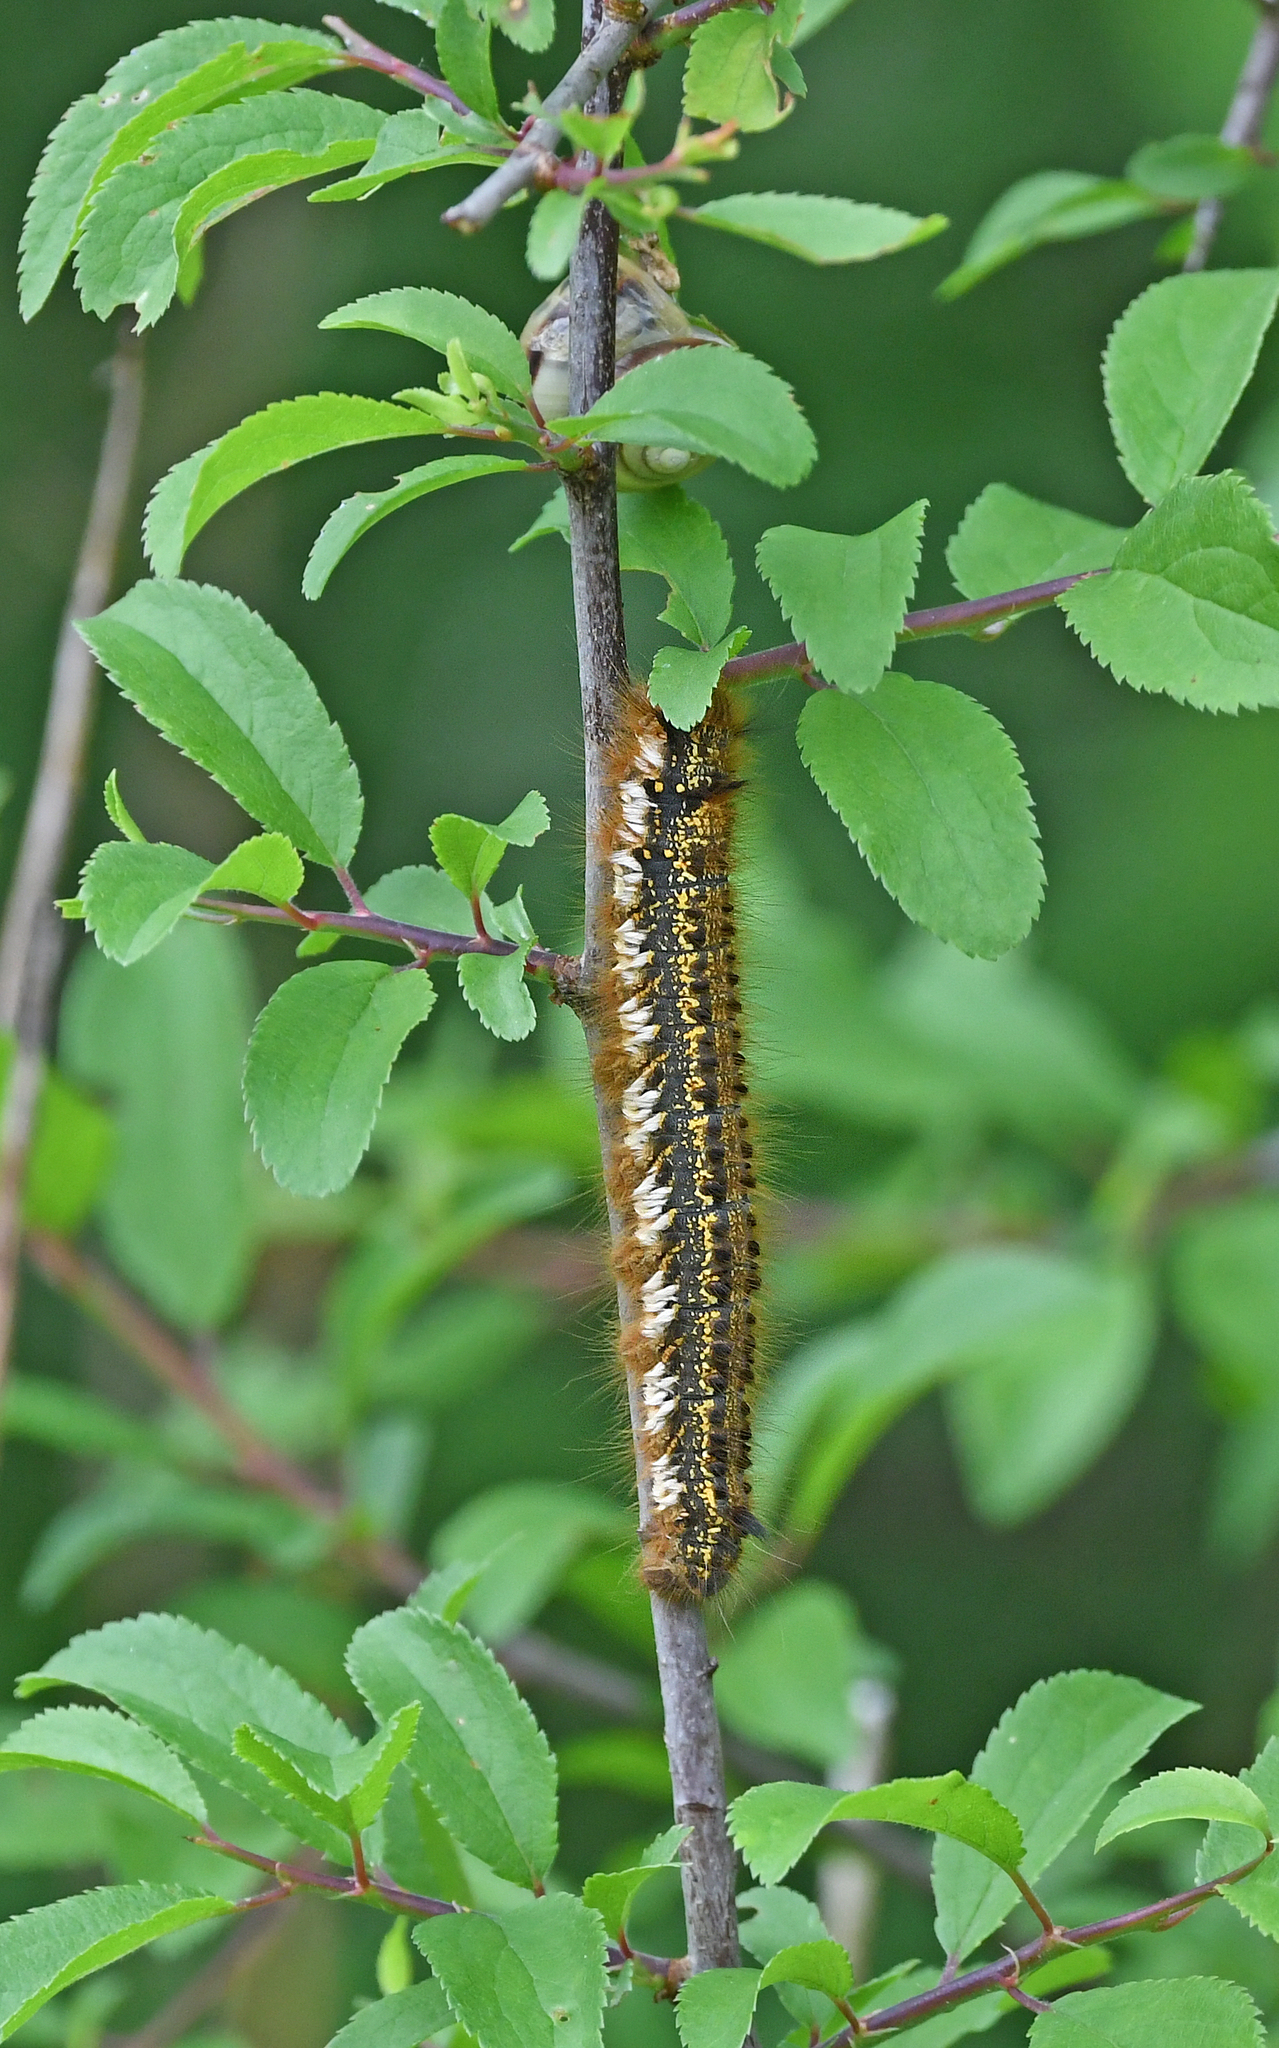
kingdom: Animalia
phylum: Arthropoda
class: Insecta
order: Lepidoptera
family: Lasiocampidae
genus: Euthrix
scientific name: Euthrix potatoria
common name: Drinker
